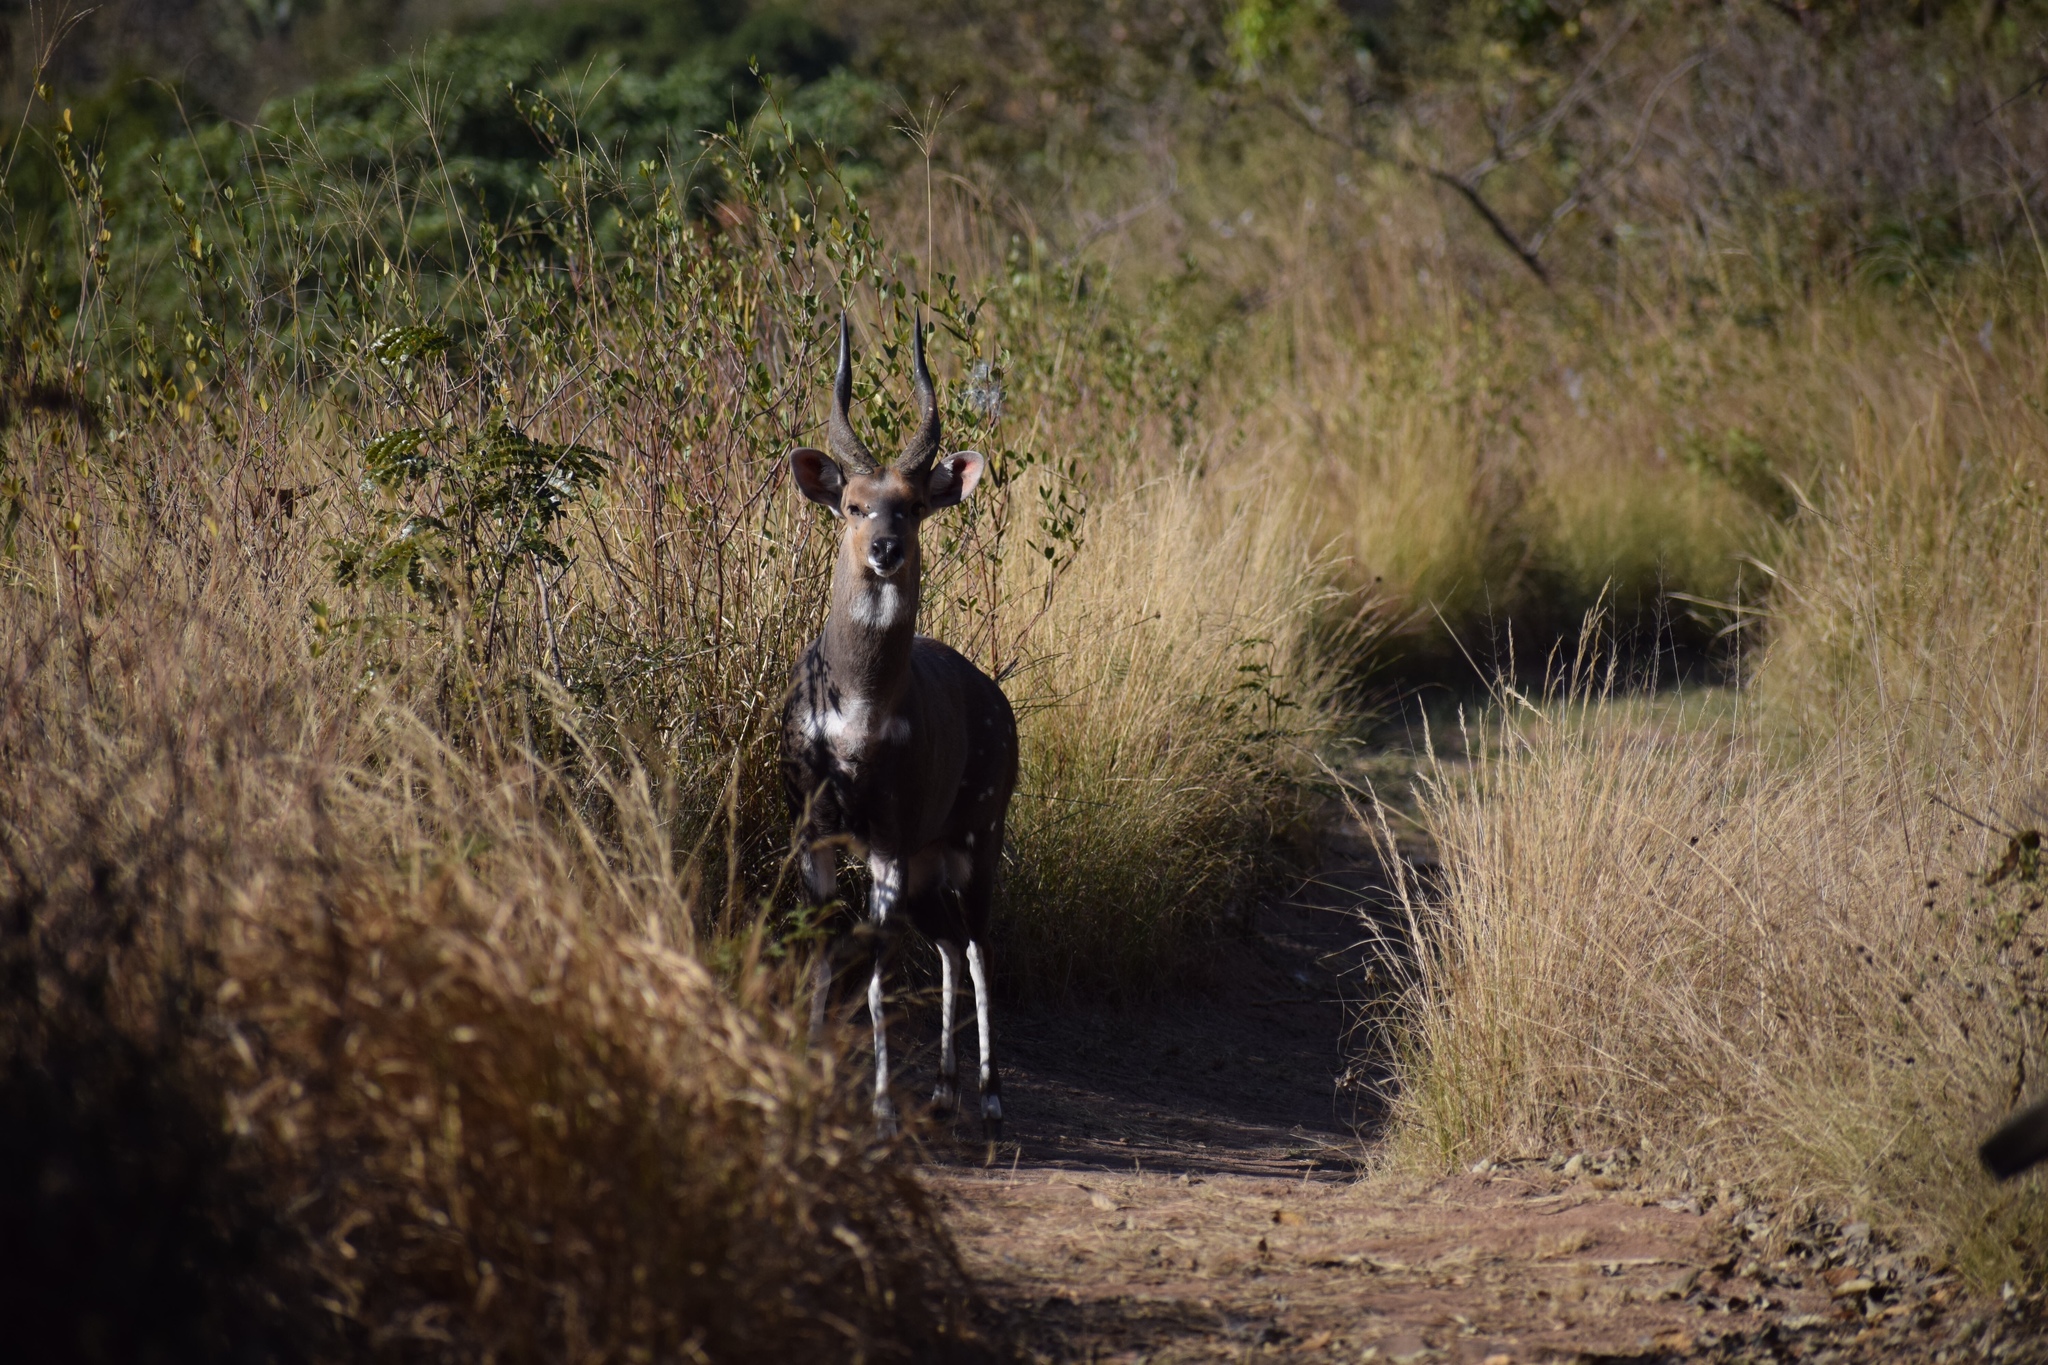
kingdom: Animalia
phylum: Chordata
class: Mammalia
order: Artiodactyla
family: Bovidae
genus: Tragelaphus
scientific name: Tragelaphus scriptus
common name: Bushbuck
